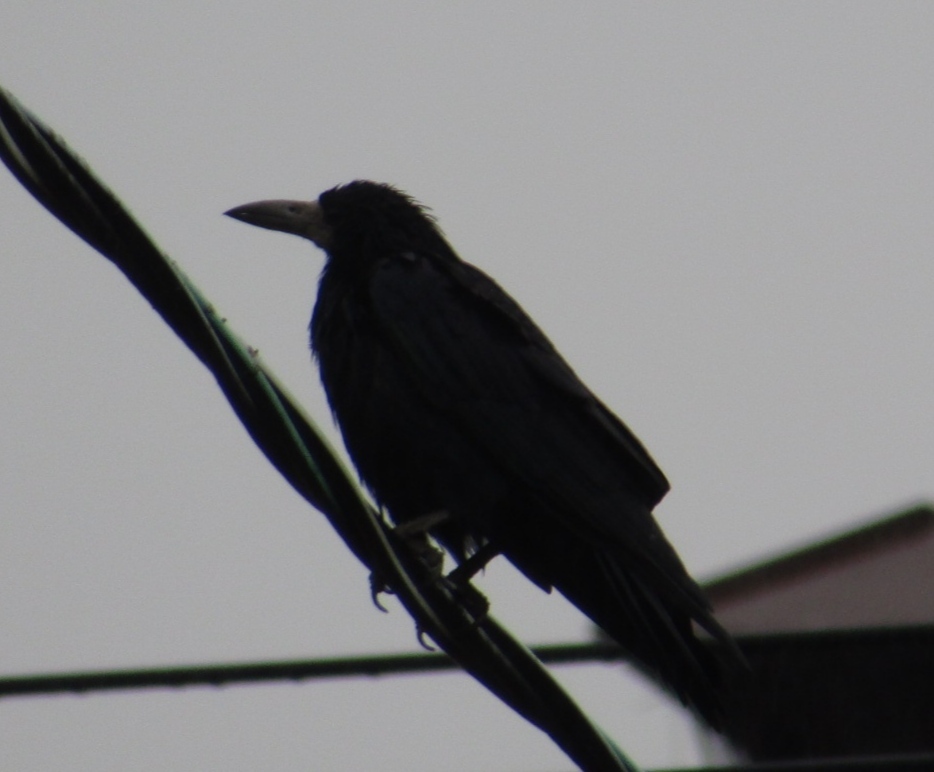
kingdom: Animalia
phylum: Chordata
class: Aves
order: Passeriformes
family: Corvidae
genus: Corvus
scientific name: Corvus frugilegus
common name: Rook
